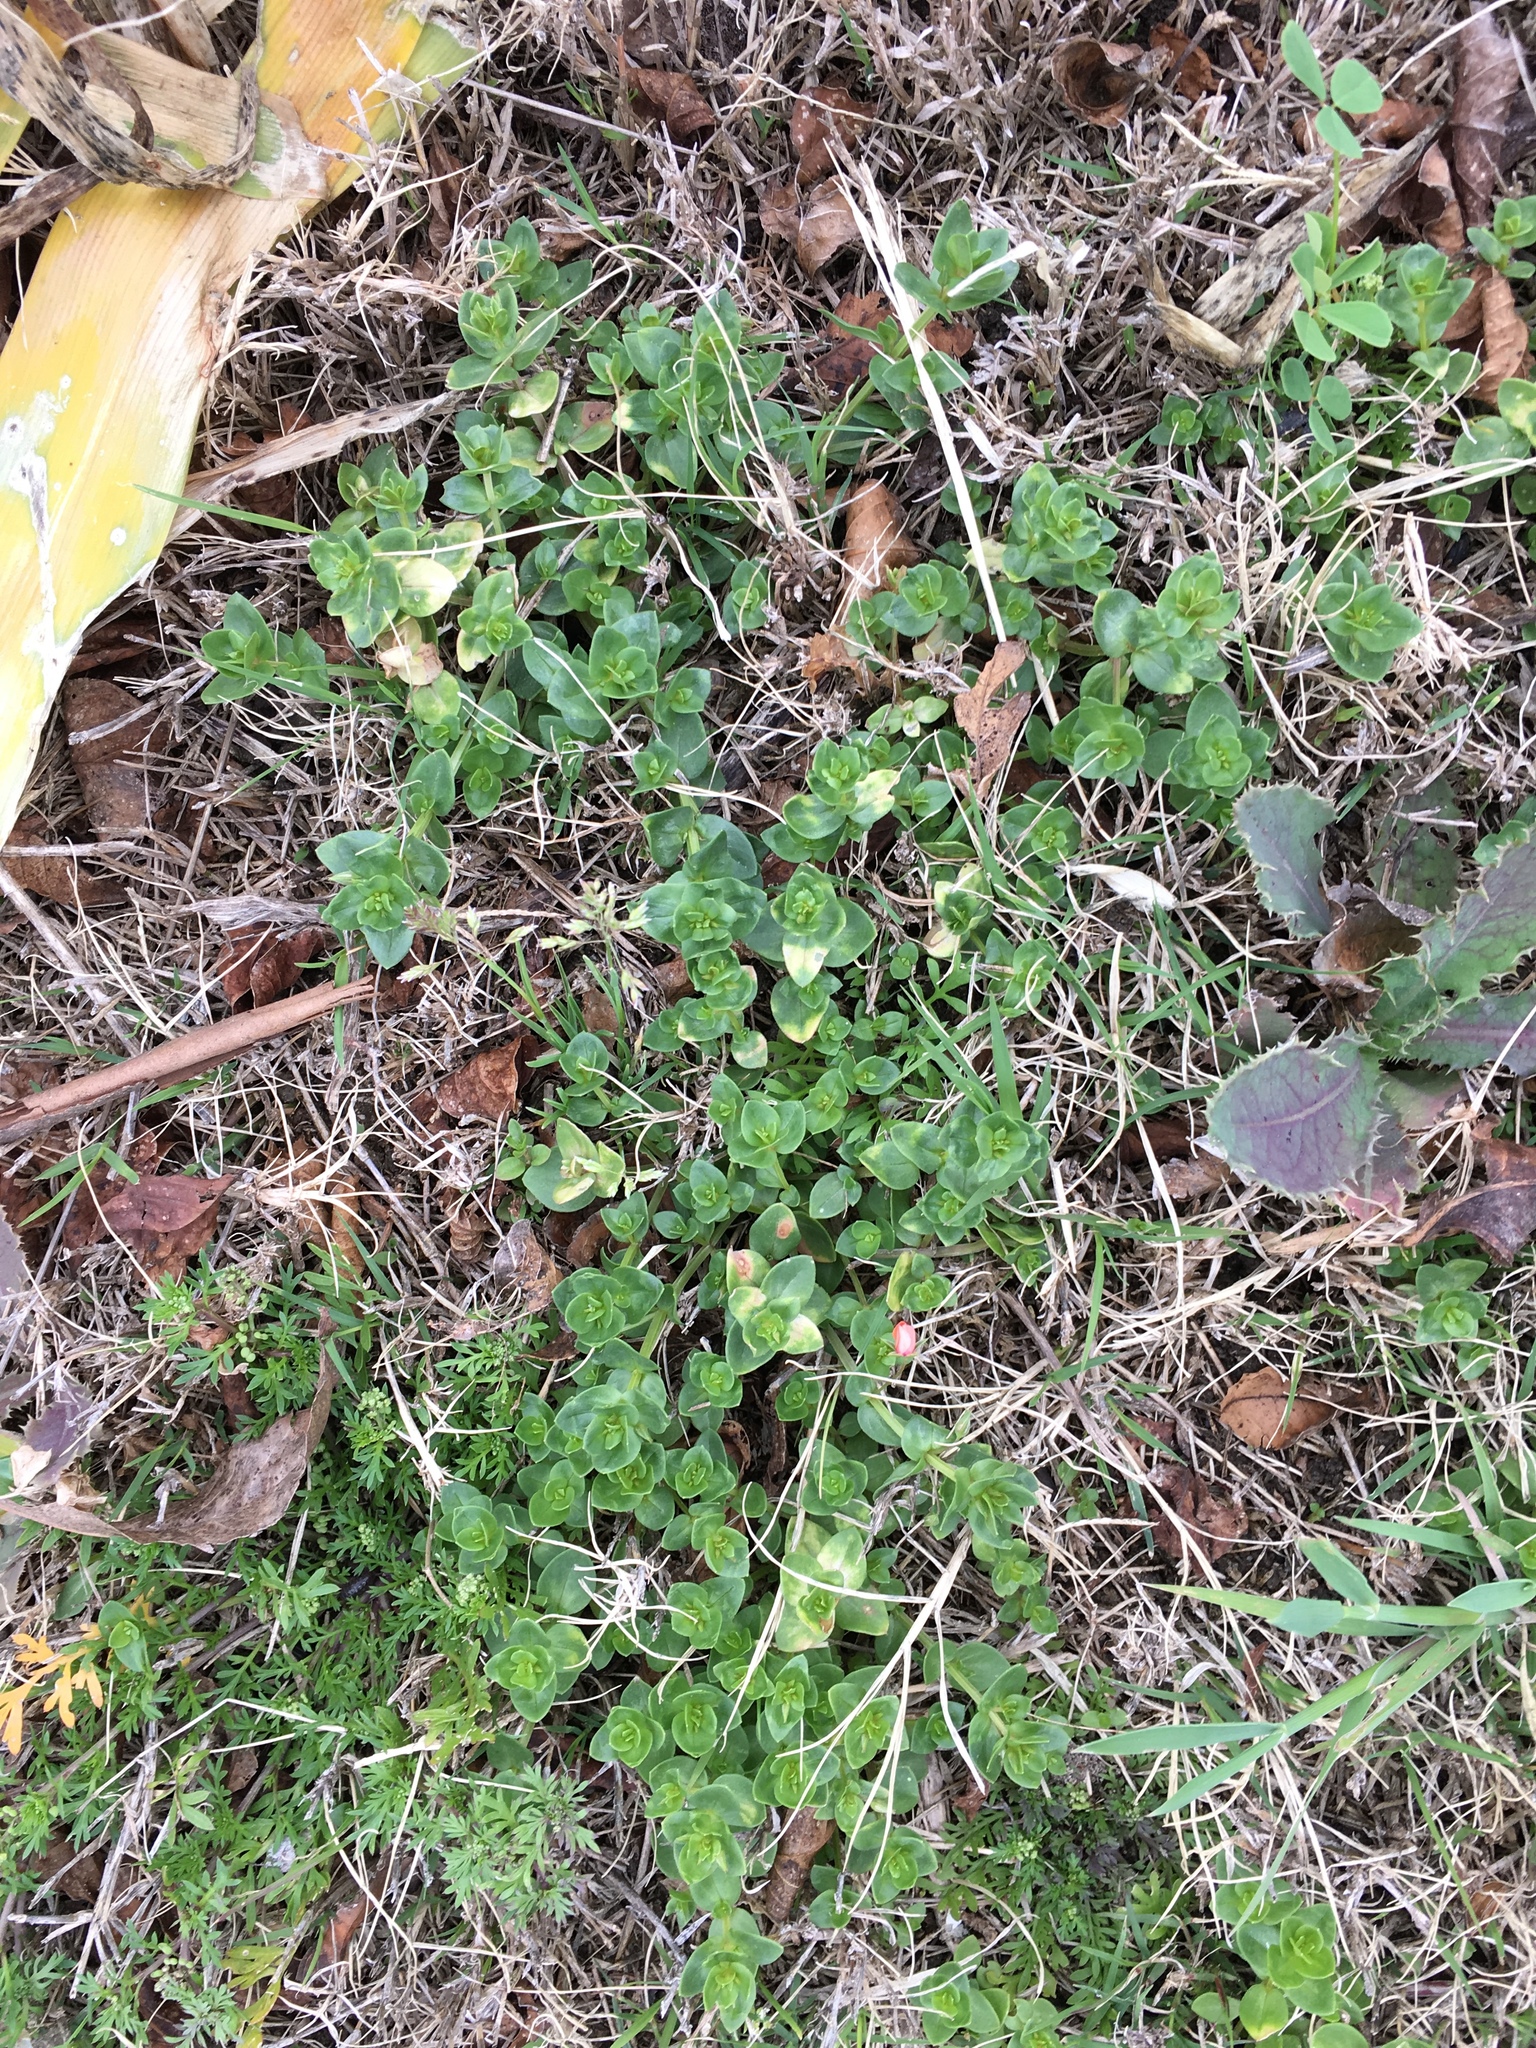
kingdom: Plantae
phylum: Tracheophyta
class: Magnoliopsida
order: Ericales
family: Primulaceae
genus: Lysimachia
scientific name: Lysimachia arvensis
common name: Scarlet pimpernel
